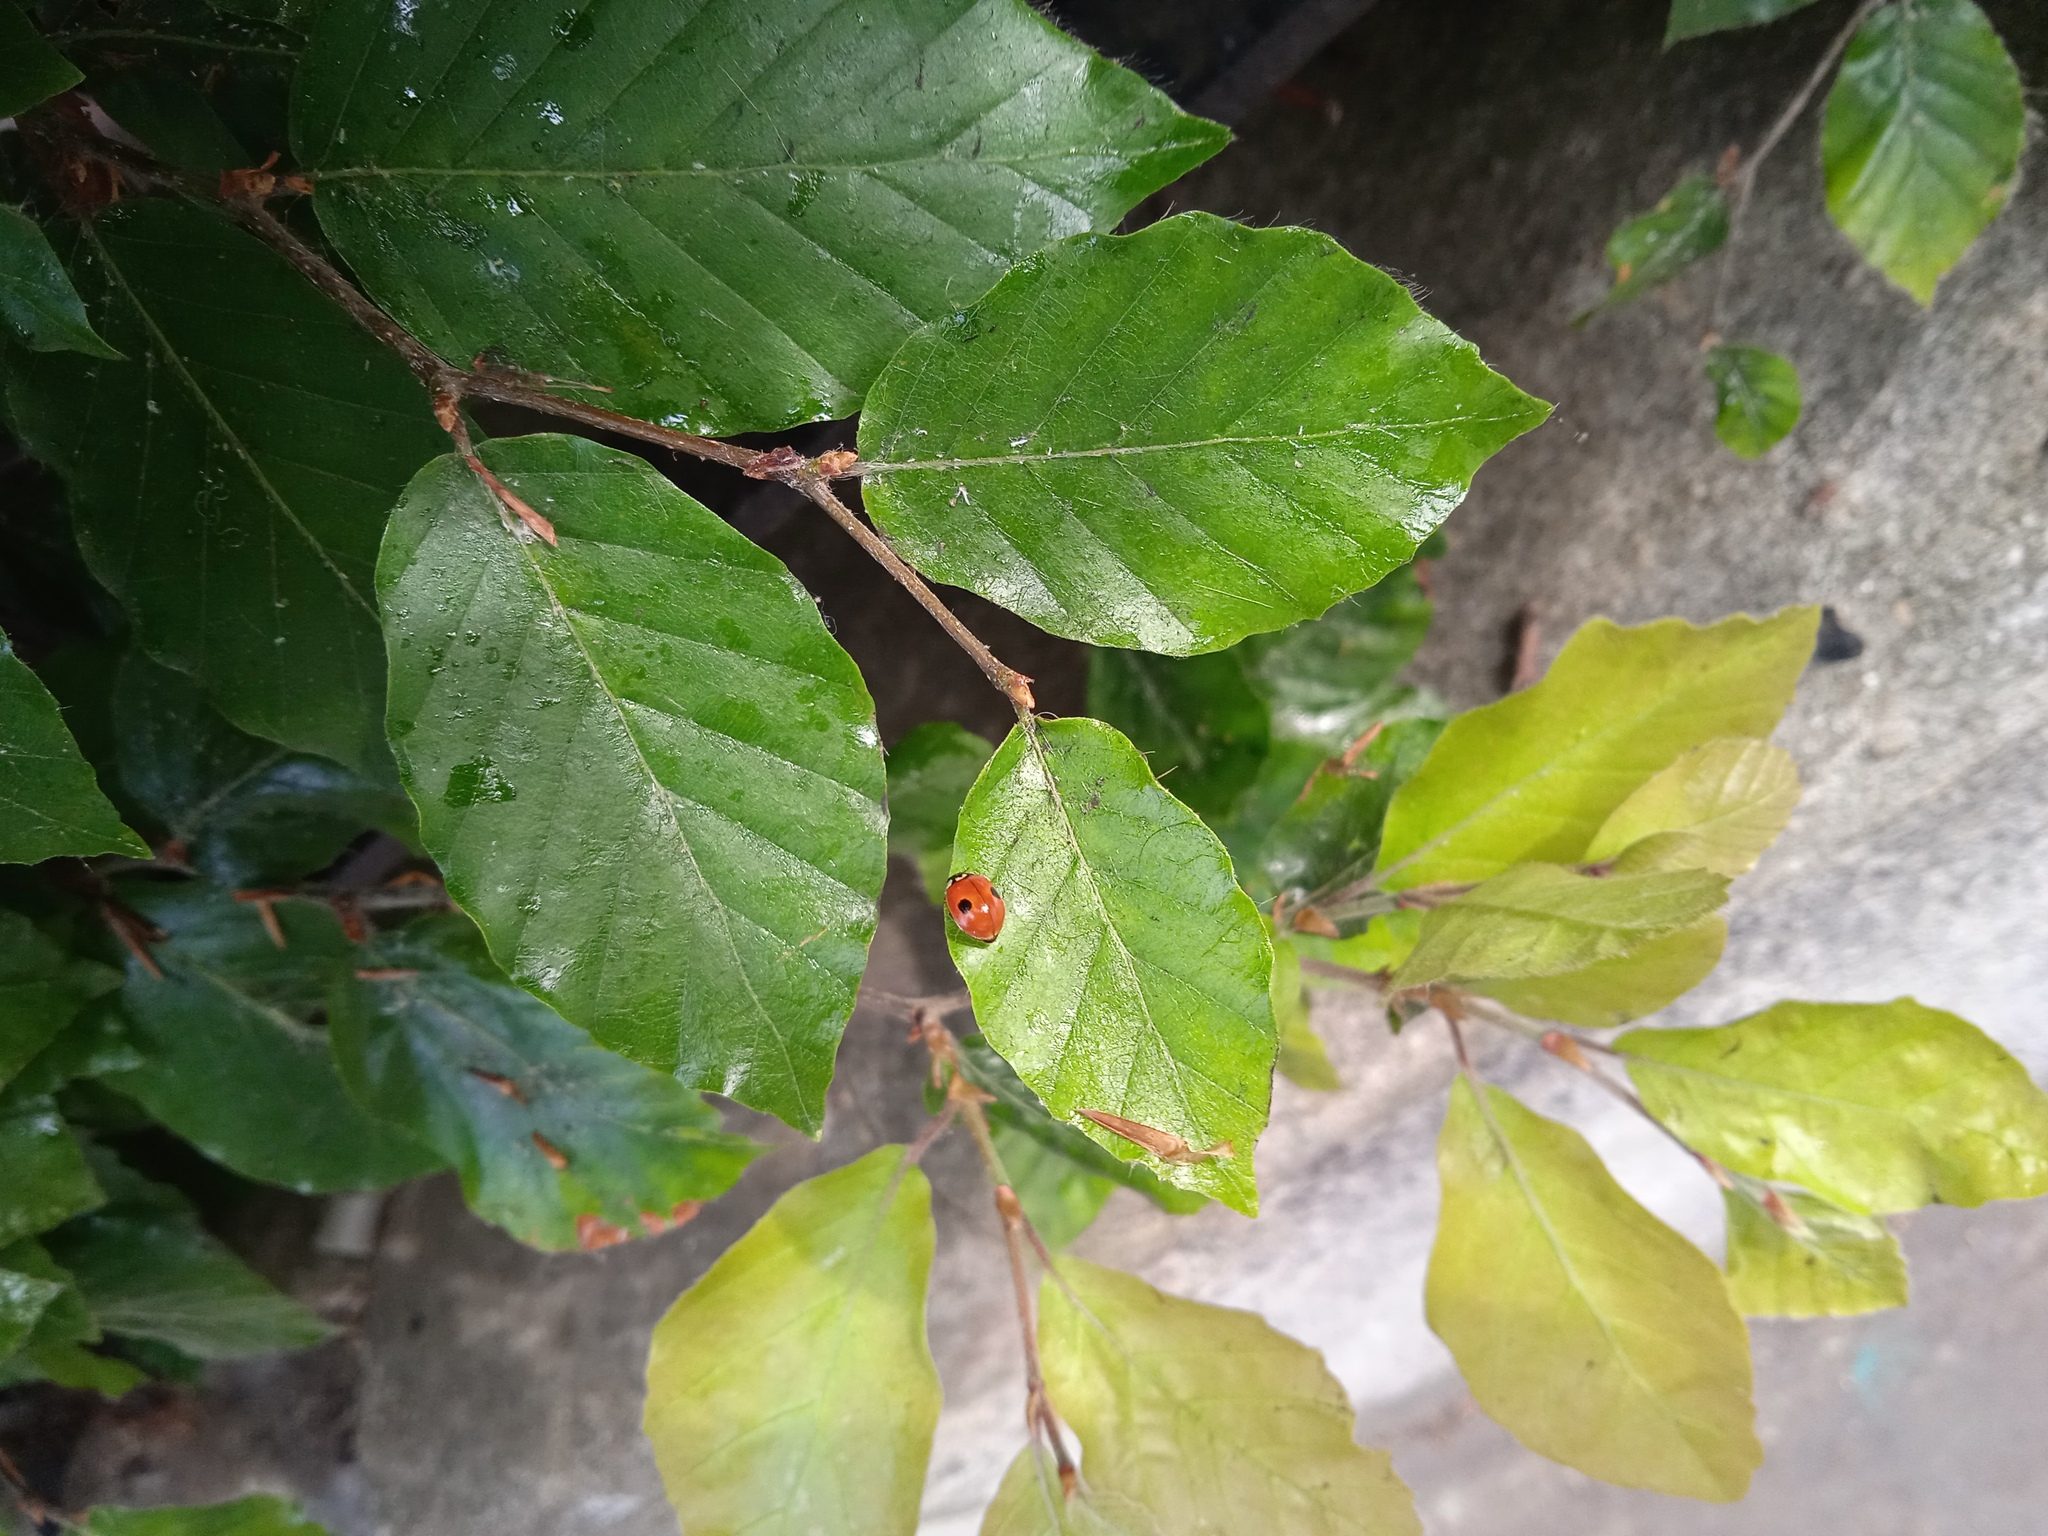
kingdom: Animalia
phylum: Arthropoda
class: Insecta
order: Coleoptera
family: Coccinellidae
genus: Adalia
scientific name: Adalia bipunctata
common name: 2-spot ladybird
